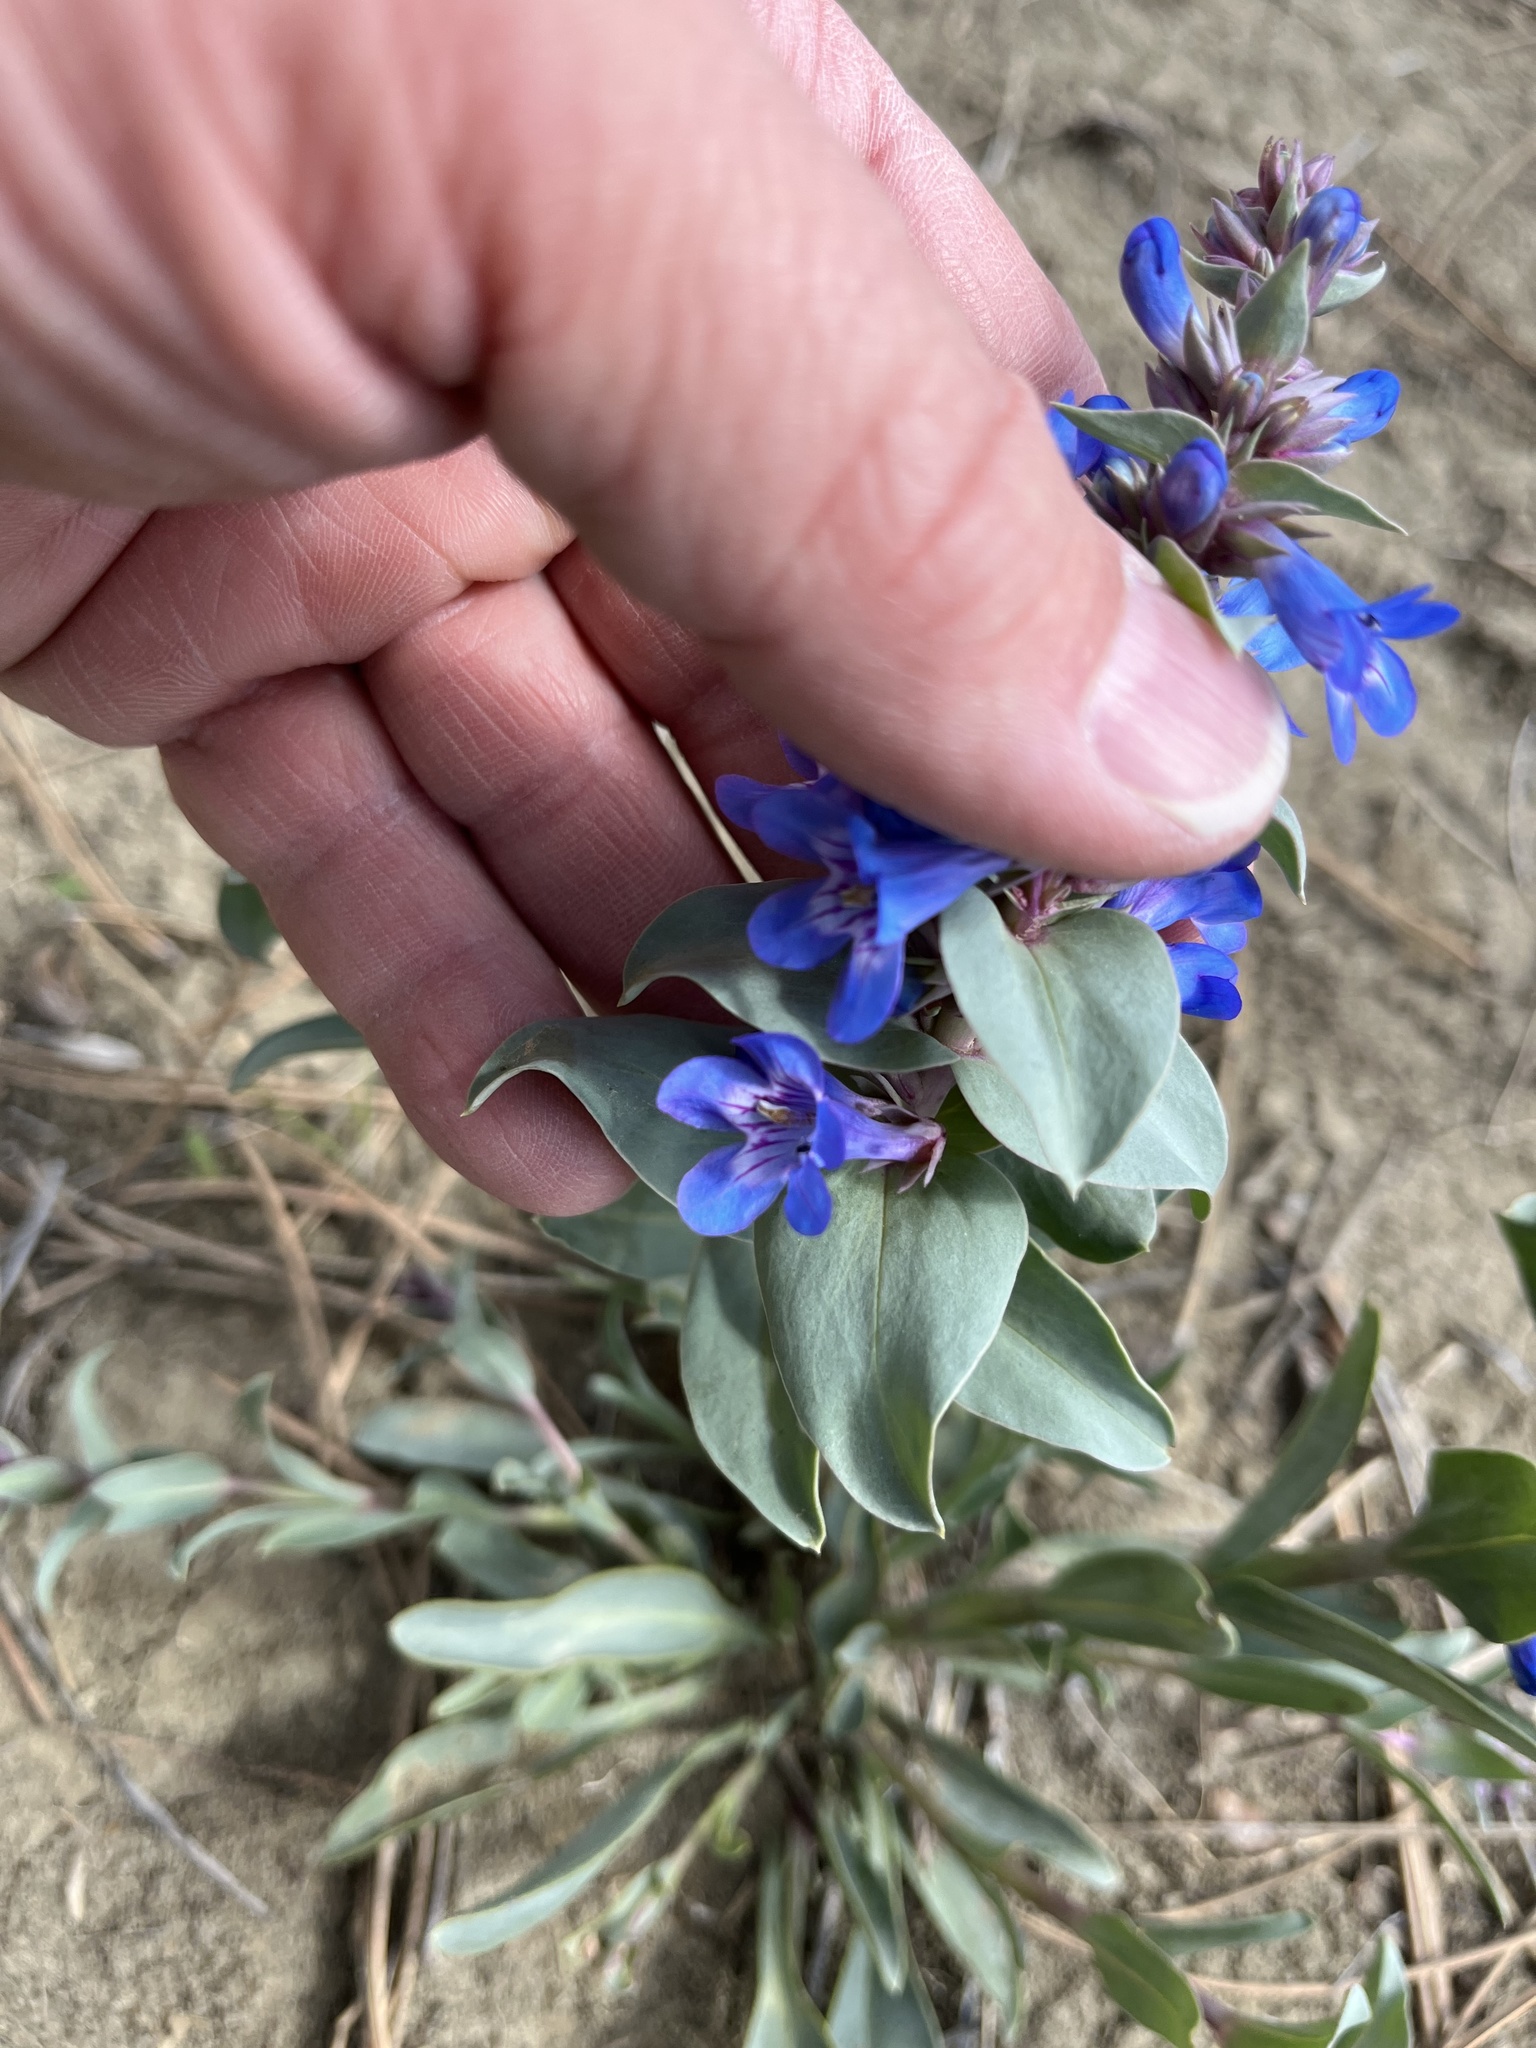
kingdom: Plantae
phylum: Tracheophyta
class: Magnoliopsida
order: Lamiales
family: Plantaginaceae
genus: Penstemon
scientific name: Penstemon nitidus
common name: Shining penstemon
